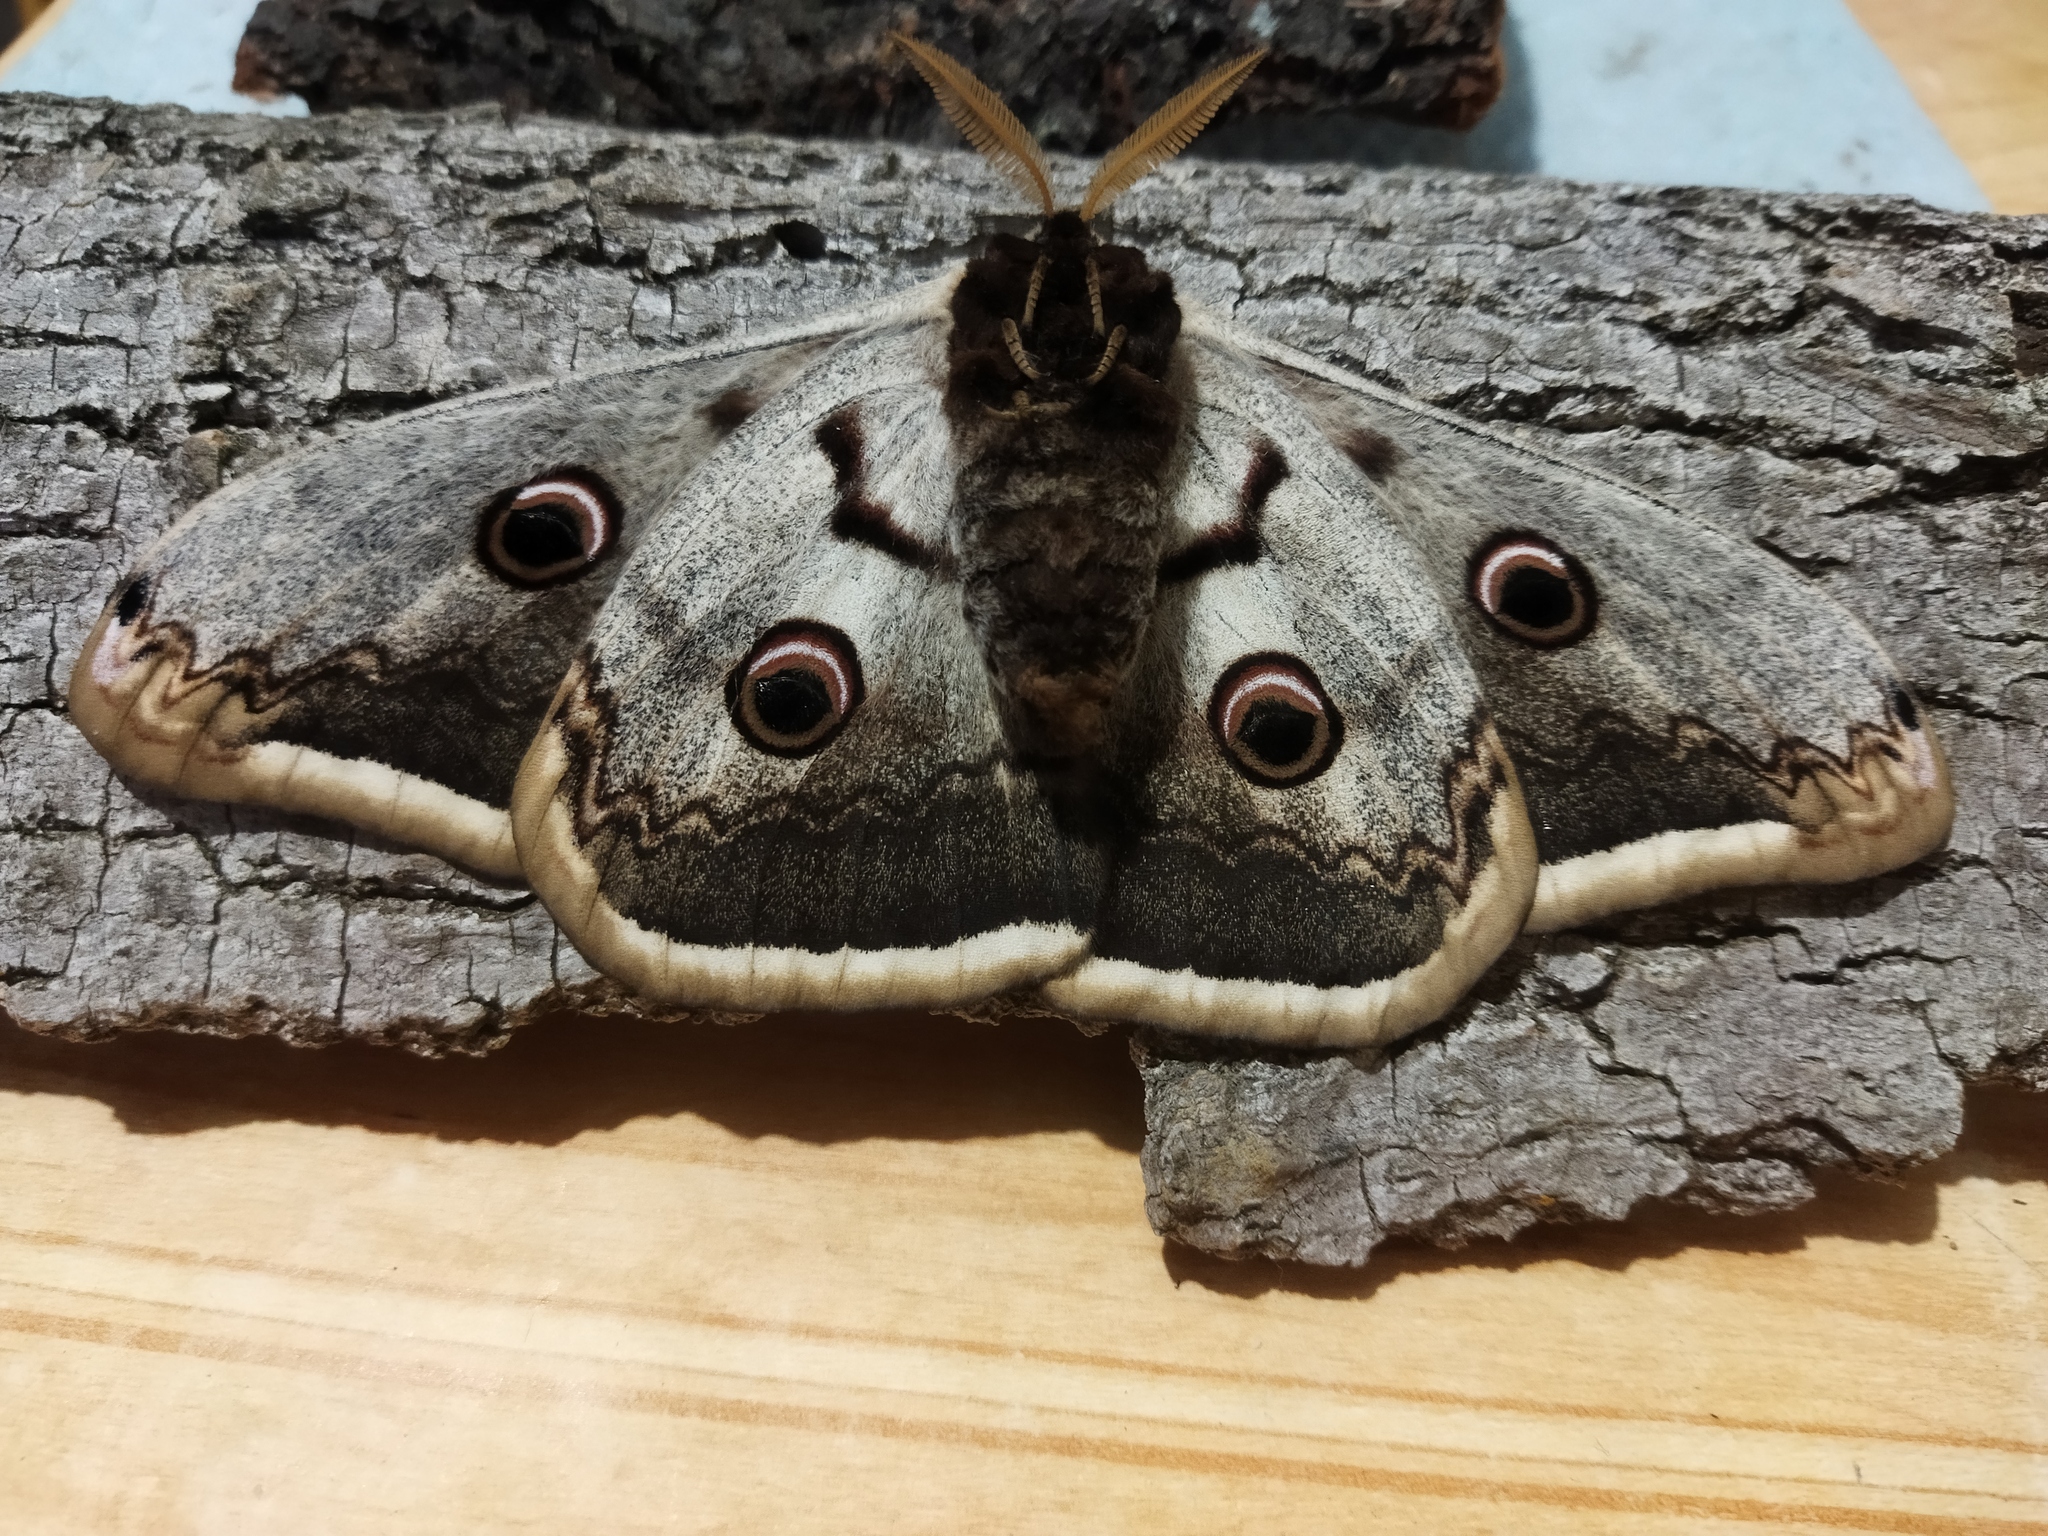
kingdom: Animalia
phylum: Arthropoda
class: Insecta
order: Lepidoptera
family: Saturniidae
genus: Saturnia
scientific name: Saturnia pyri
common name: Great peacock moth
